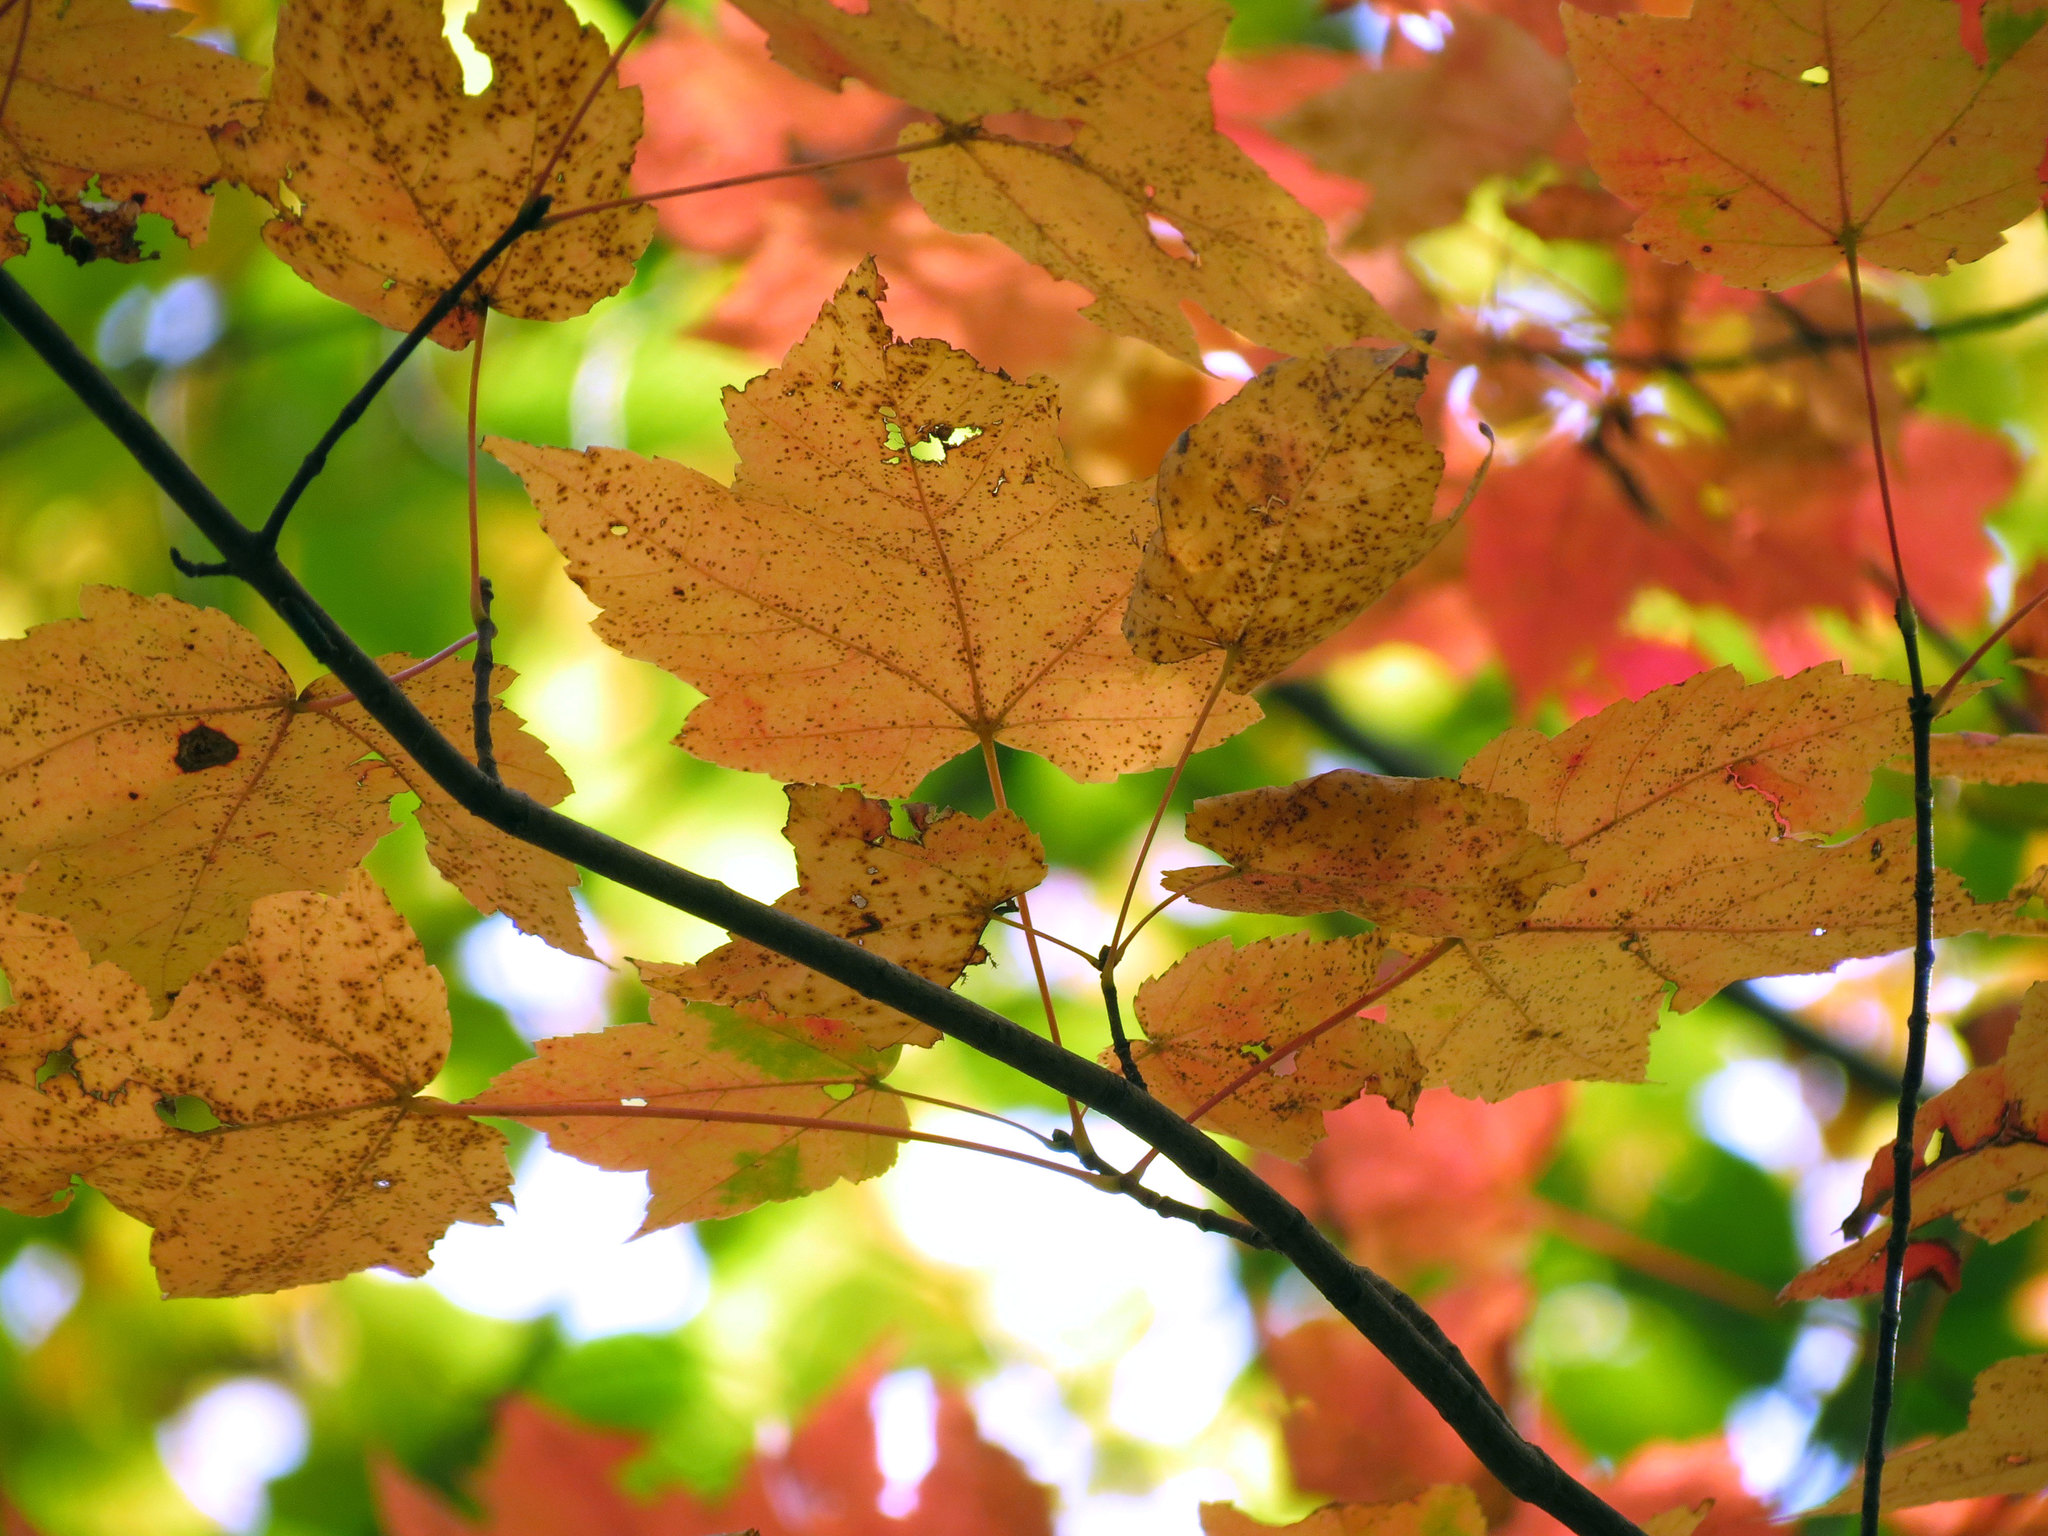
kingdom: Plantae
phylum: Tracheophyta
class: Magnoliopsida
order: Sapindales
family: Sapindaceae
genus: Acer
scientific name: Acer rubrum
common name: Red maple
